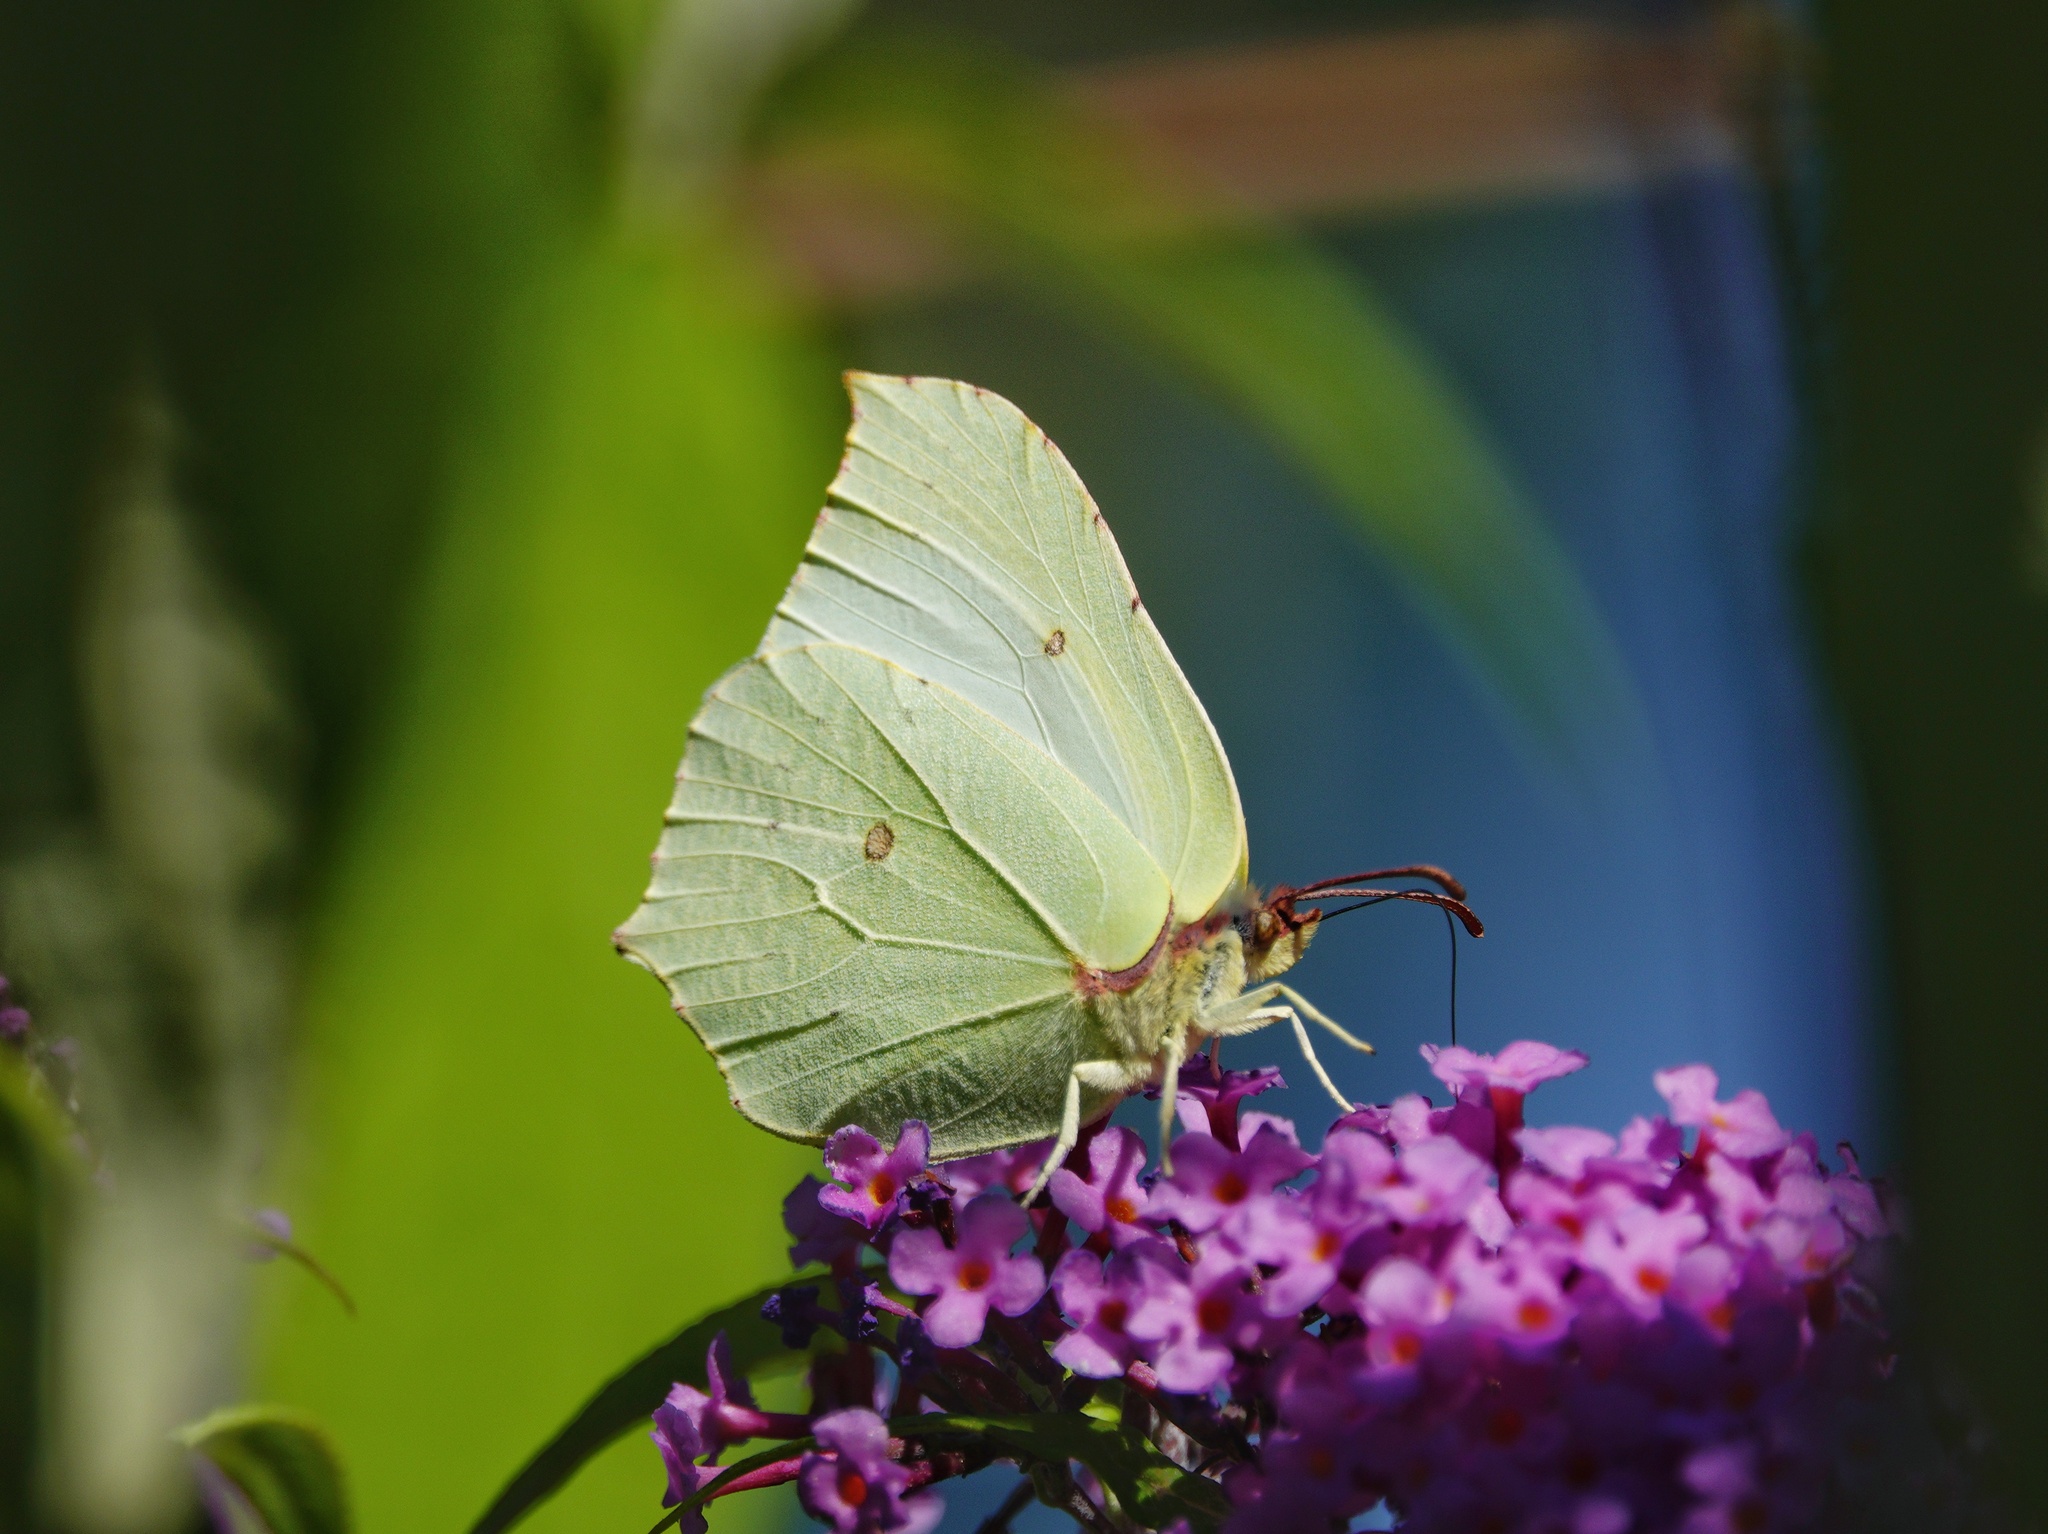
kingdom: Animalia
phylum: Arthropoda
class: Insecta
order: Lepidoptera
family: Pieridae
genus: Gonepteryx
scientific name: Gonepteryx rhamni
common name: Brimstone
